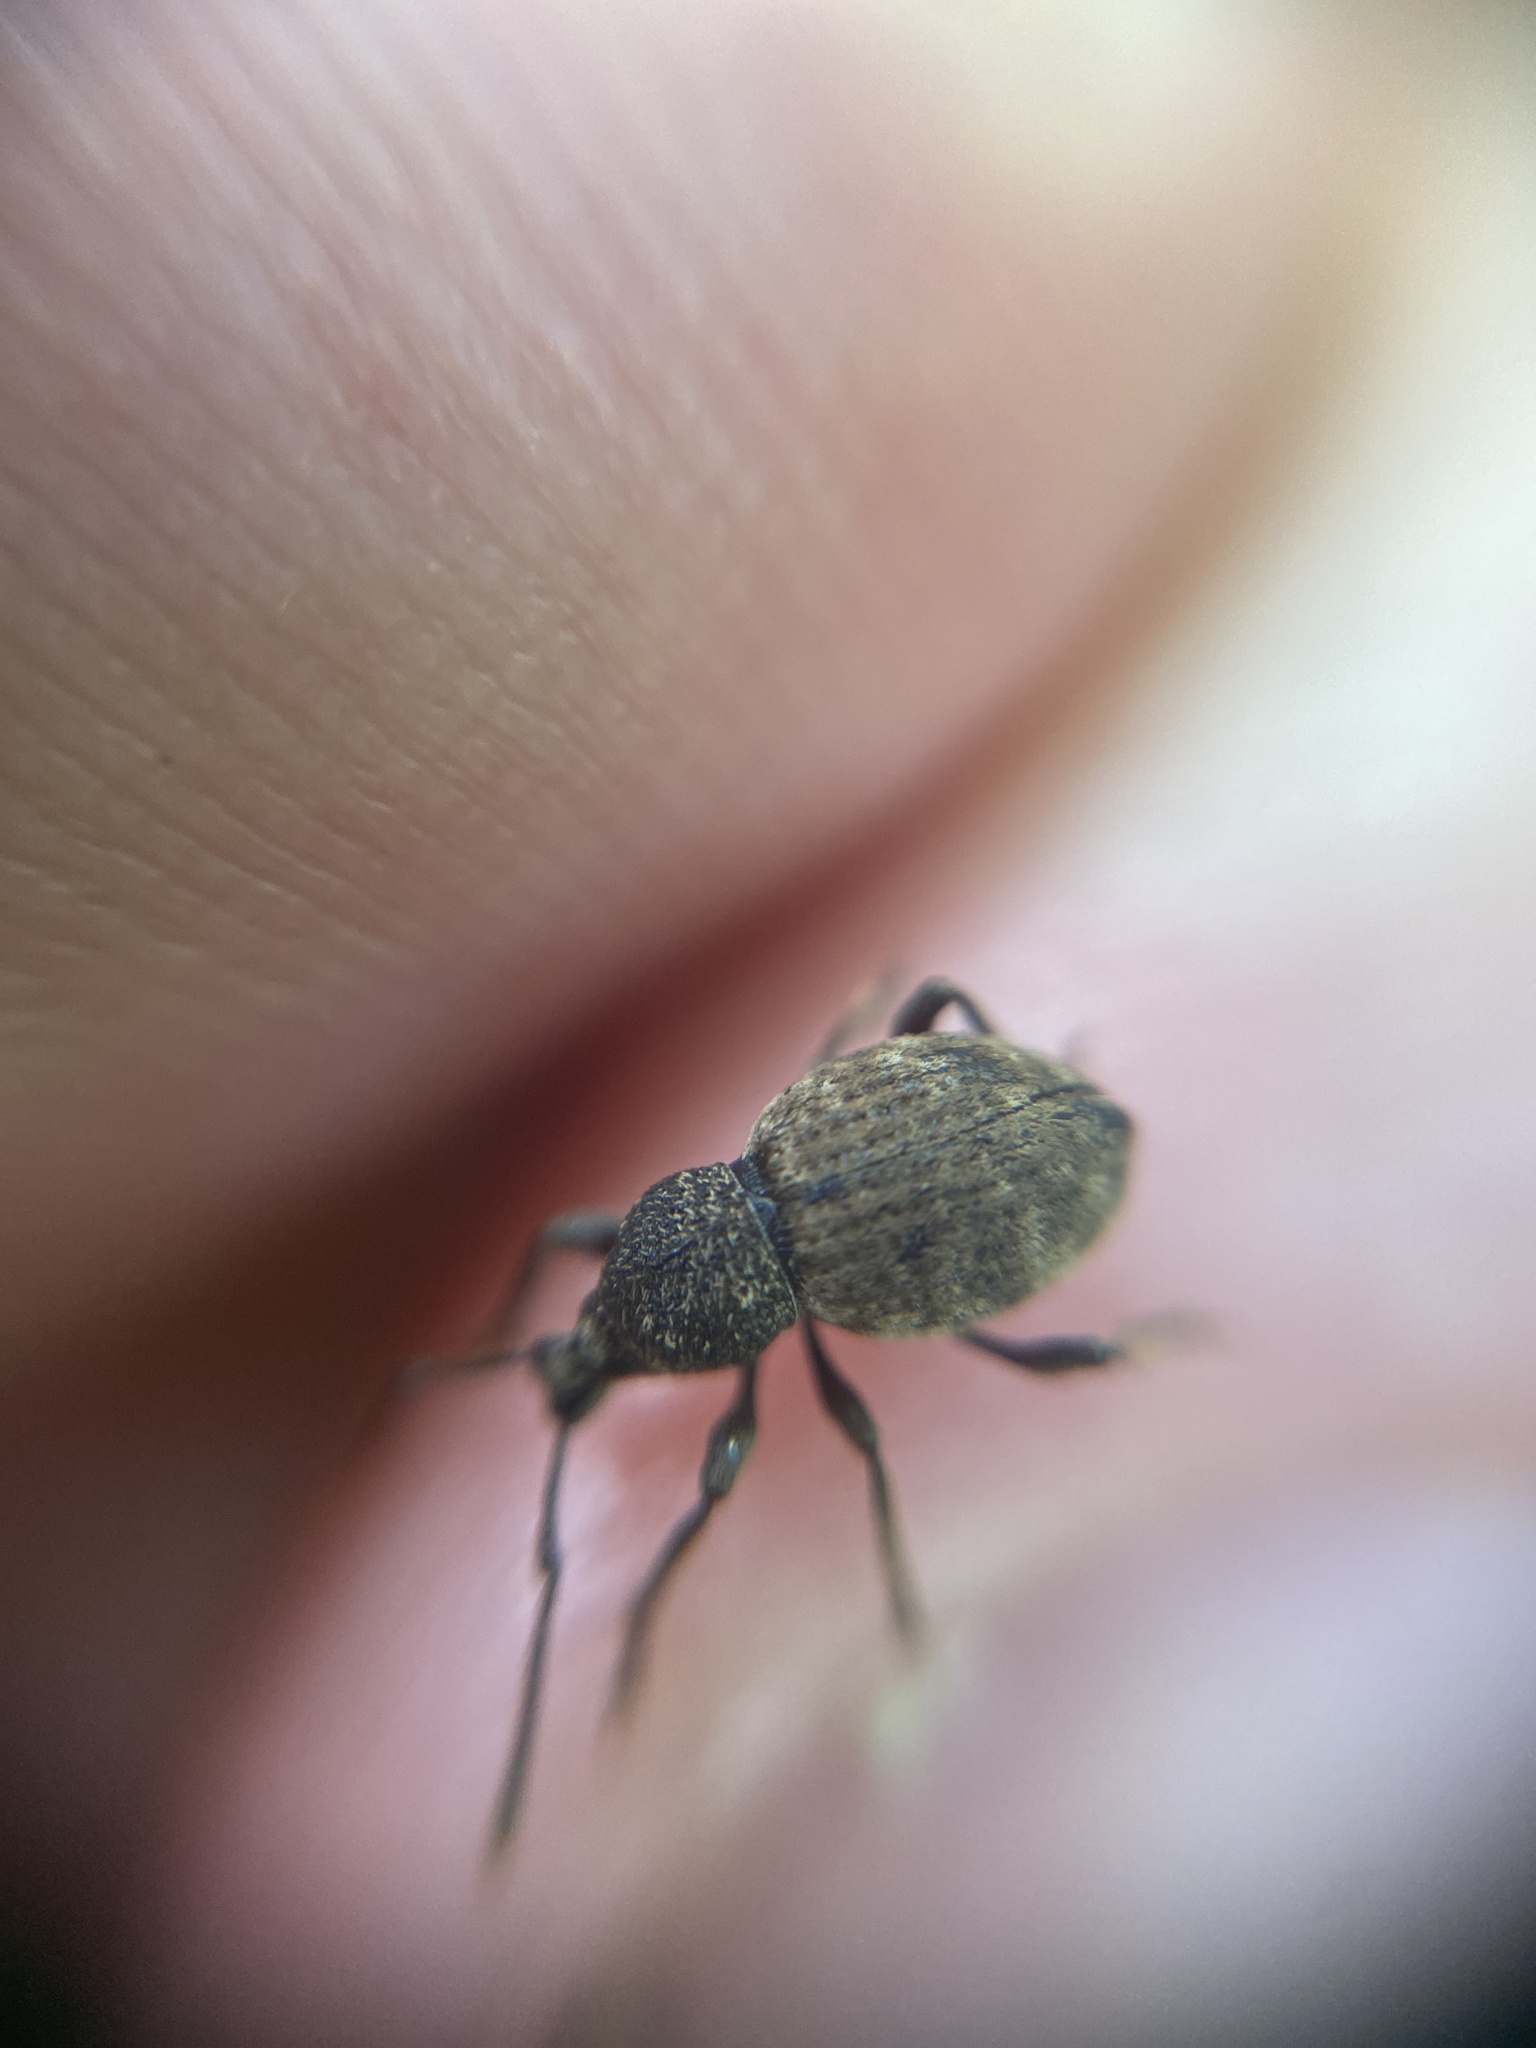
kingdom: Animalia
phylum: Arthropoda
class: Insecta
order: Coleoptera
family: Curculionidae
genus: Otiorhynchus
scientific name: Otiorhynchus raucus
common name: Weevil
